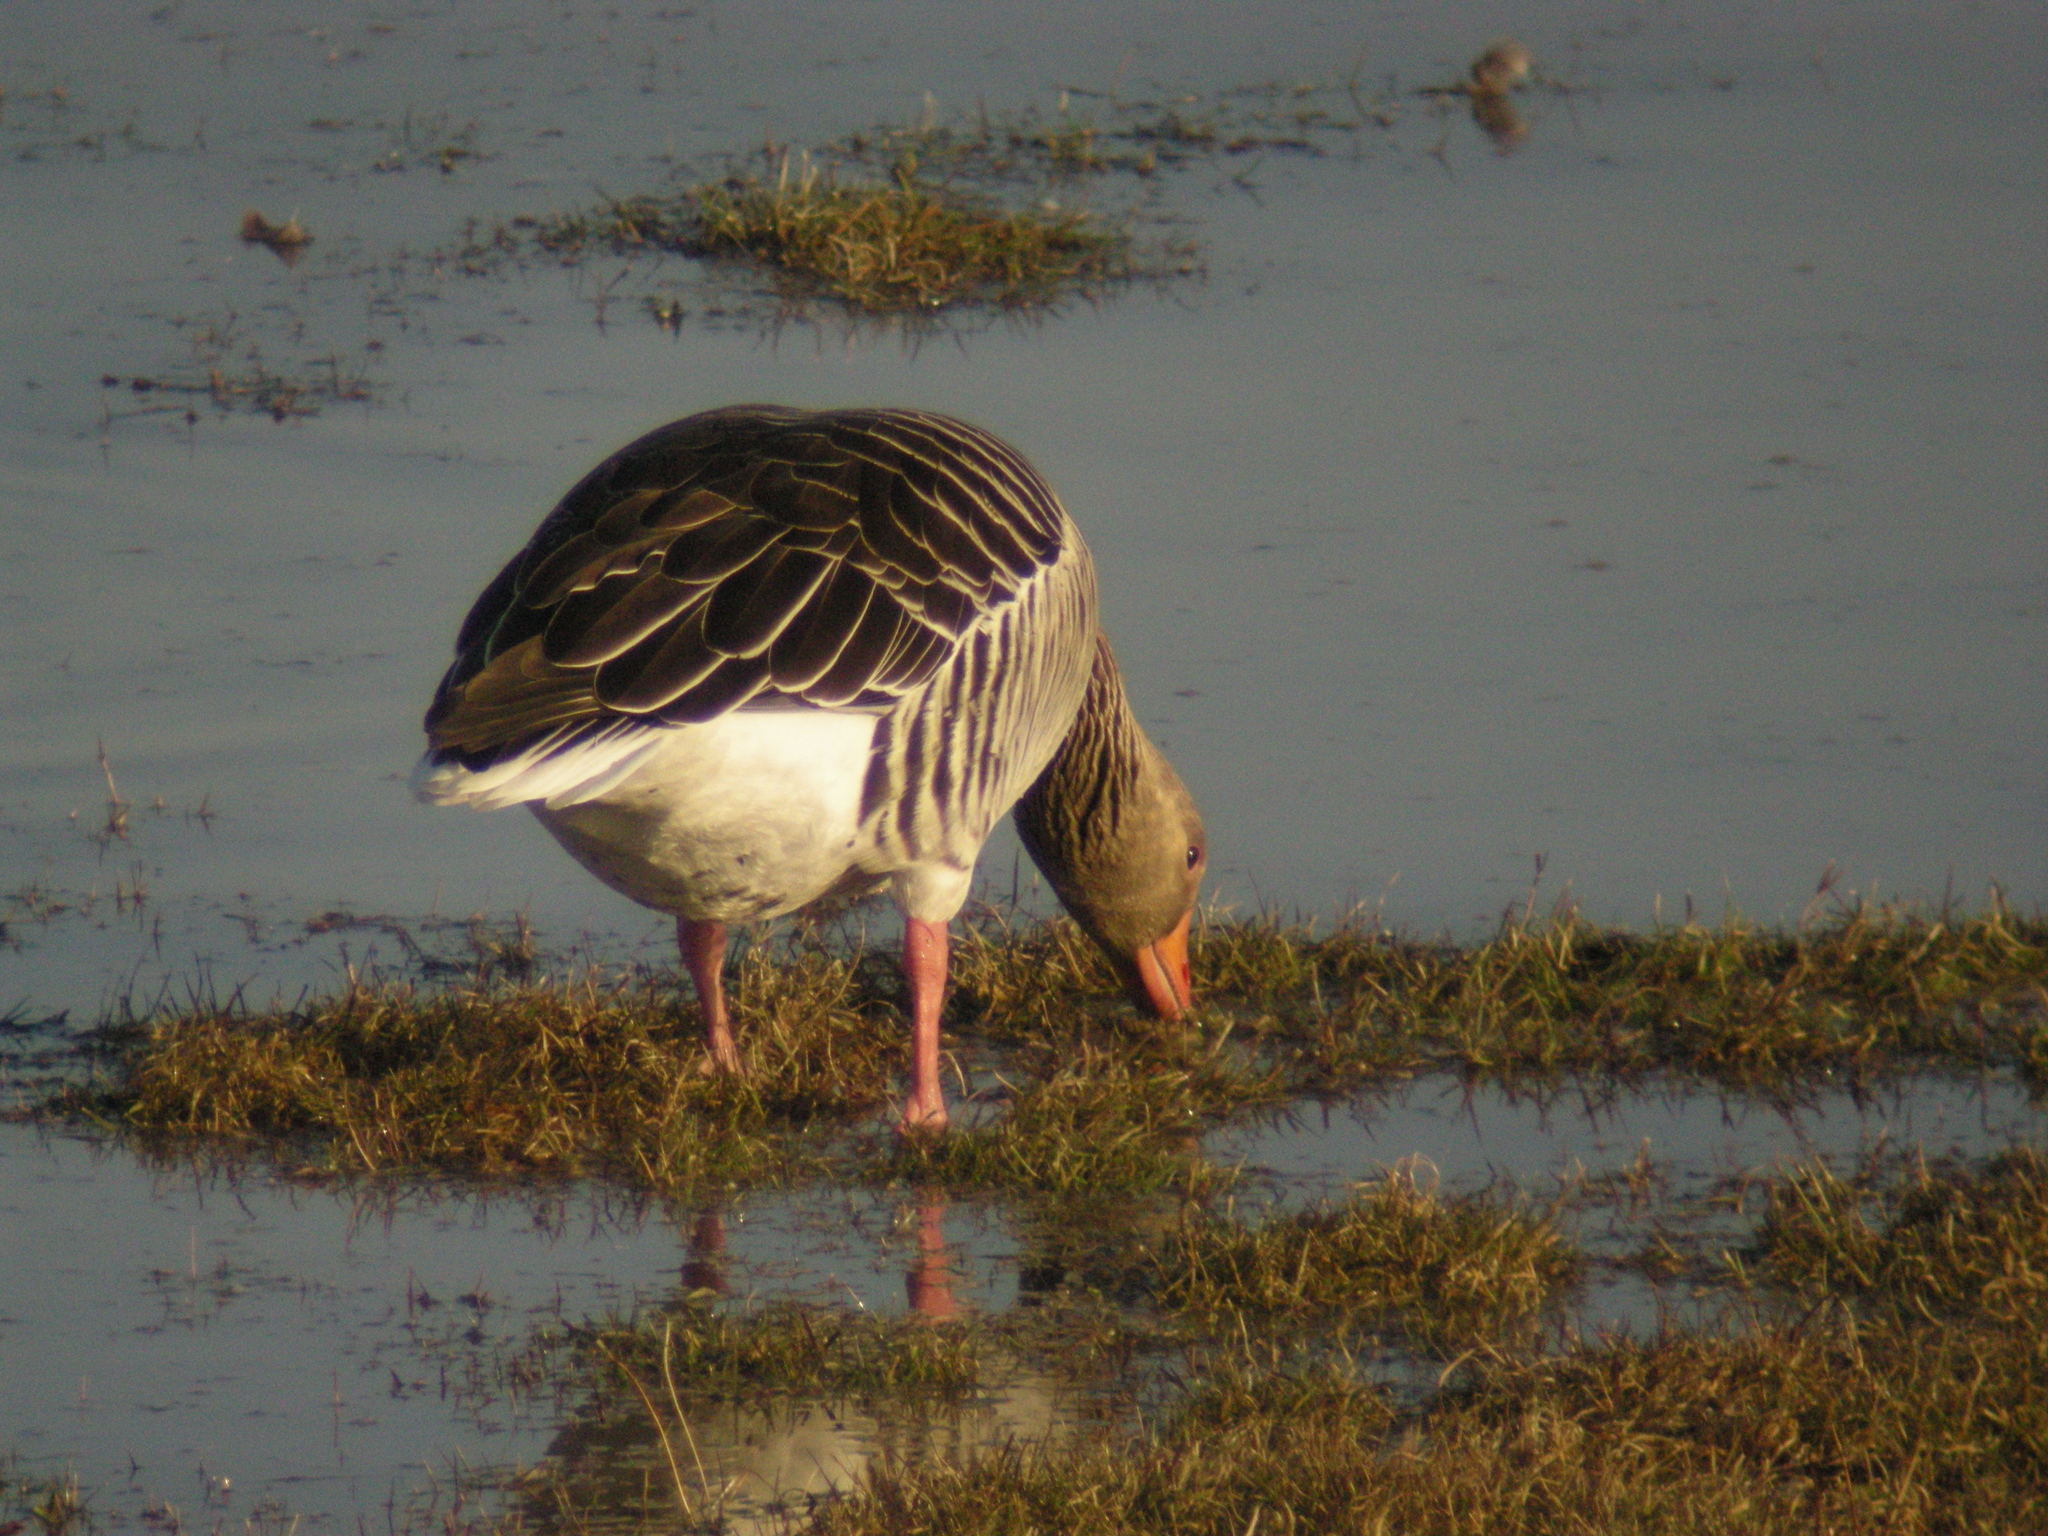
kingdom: Animalia
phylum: Chordata
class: Aves
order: Anseriformes
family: Anatidae
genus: Anser
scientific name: Anser anser
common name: Greylag goose
